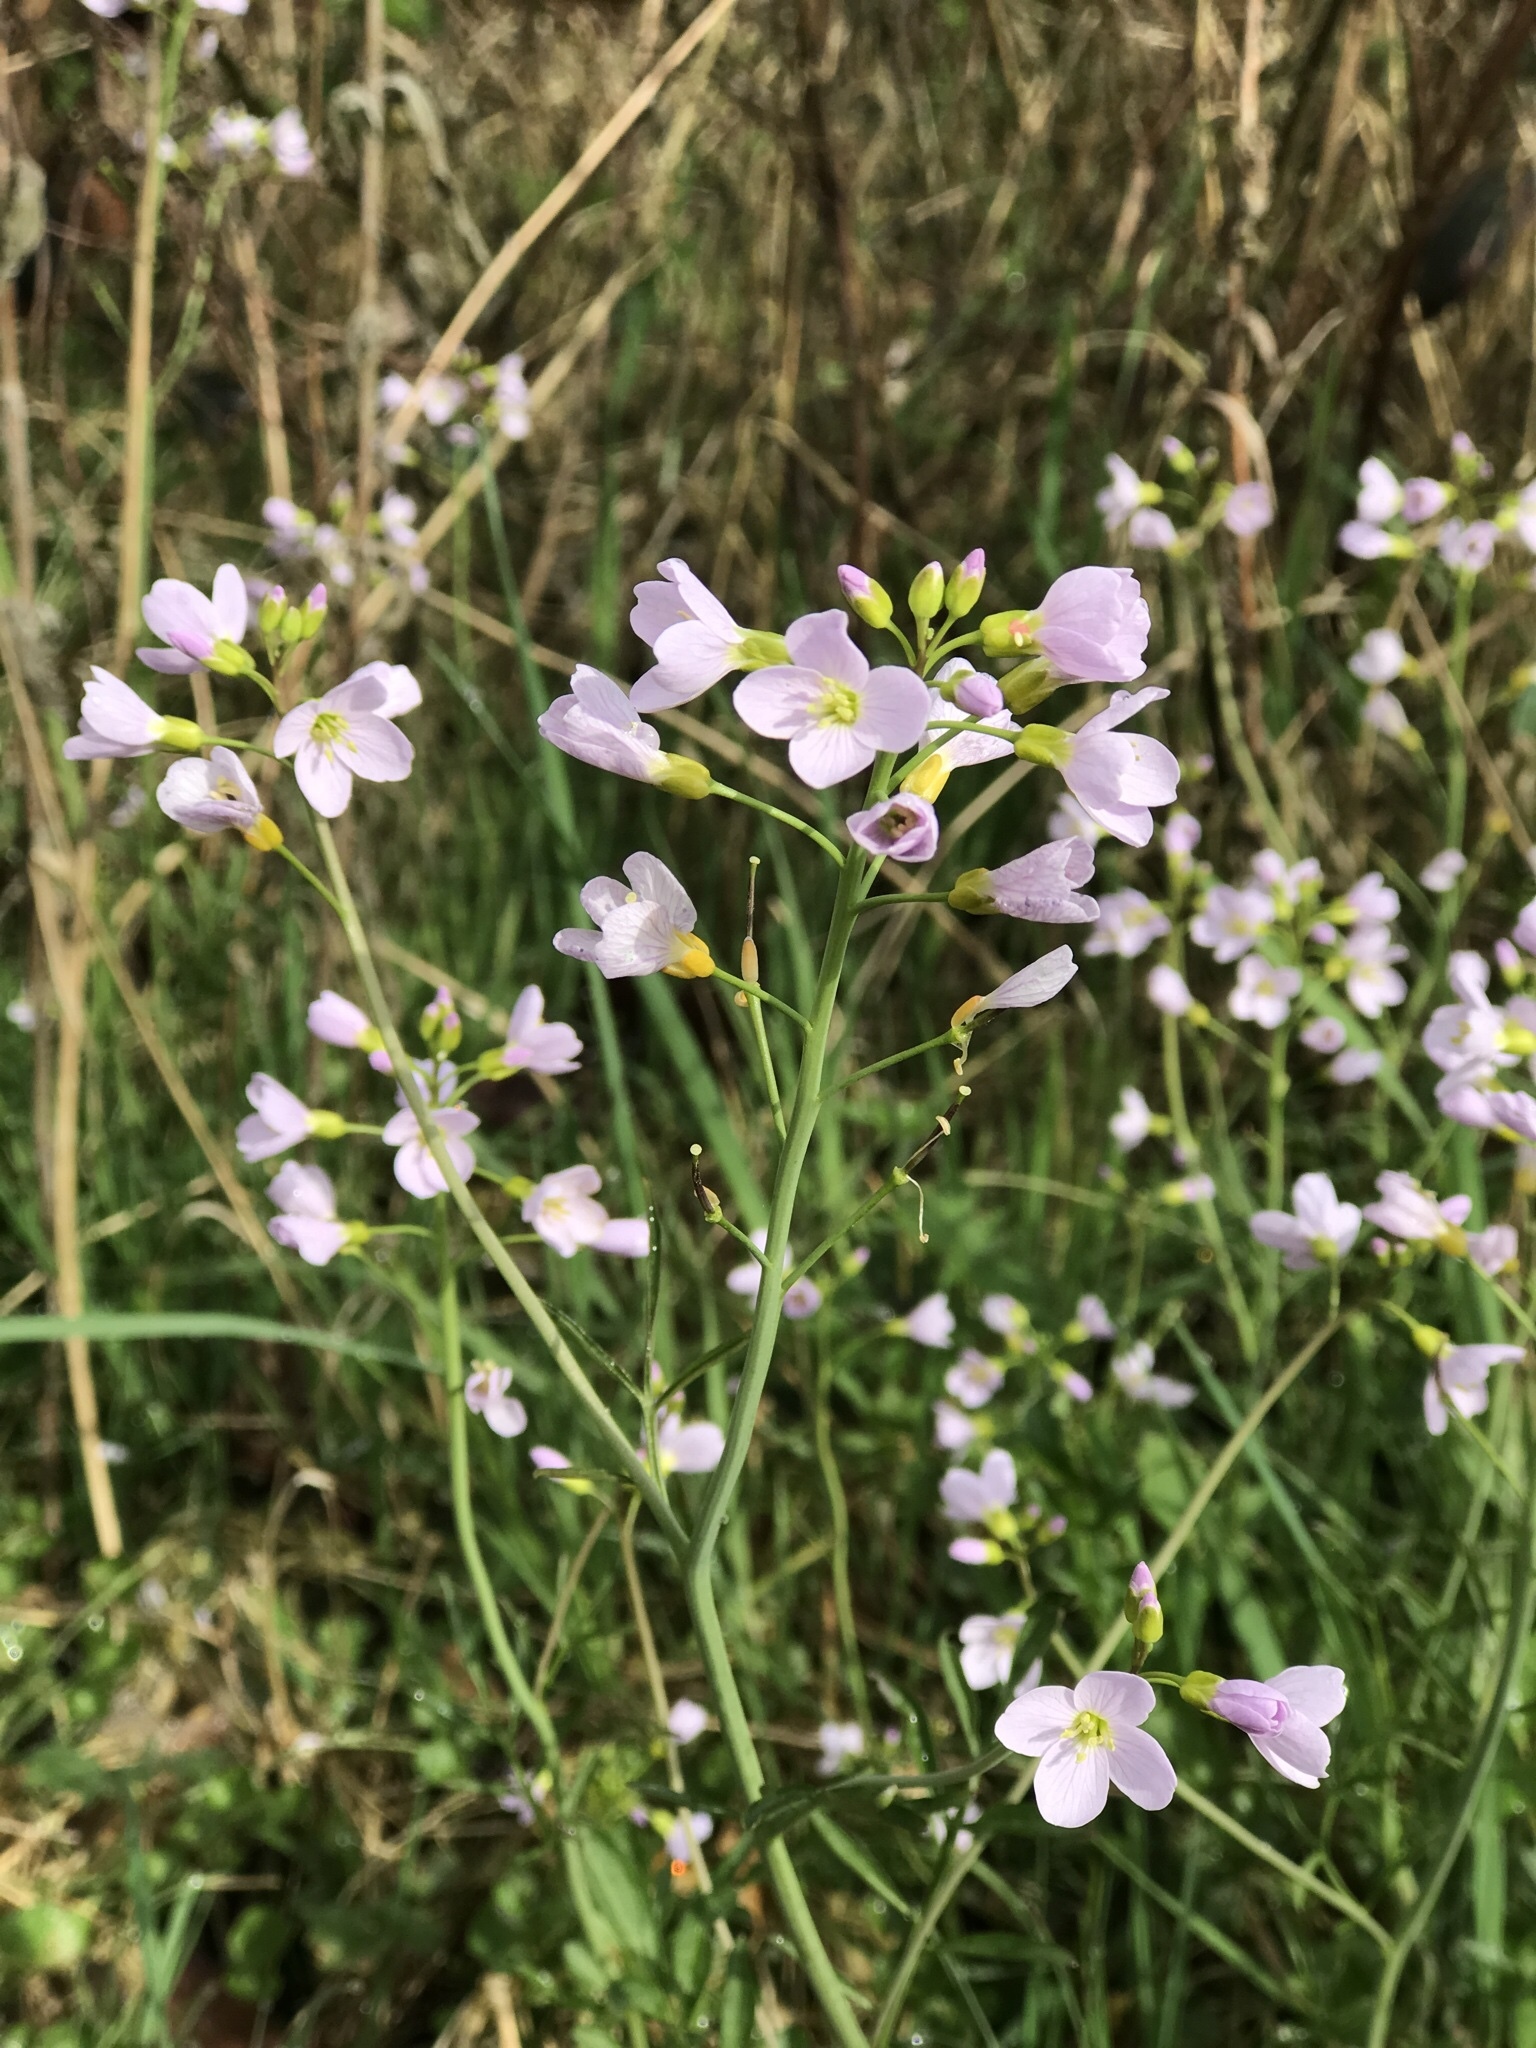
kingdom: Plantae
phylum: Tracheophyta
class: Magnoliopsida
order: Brassicales
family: Brassicaceae
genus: Cardamine
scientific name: Cardamine pratensis
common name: Cuckoo flower
